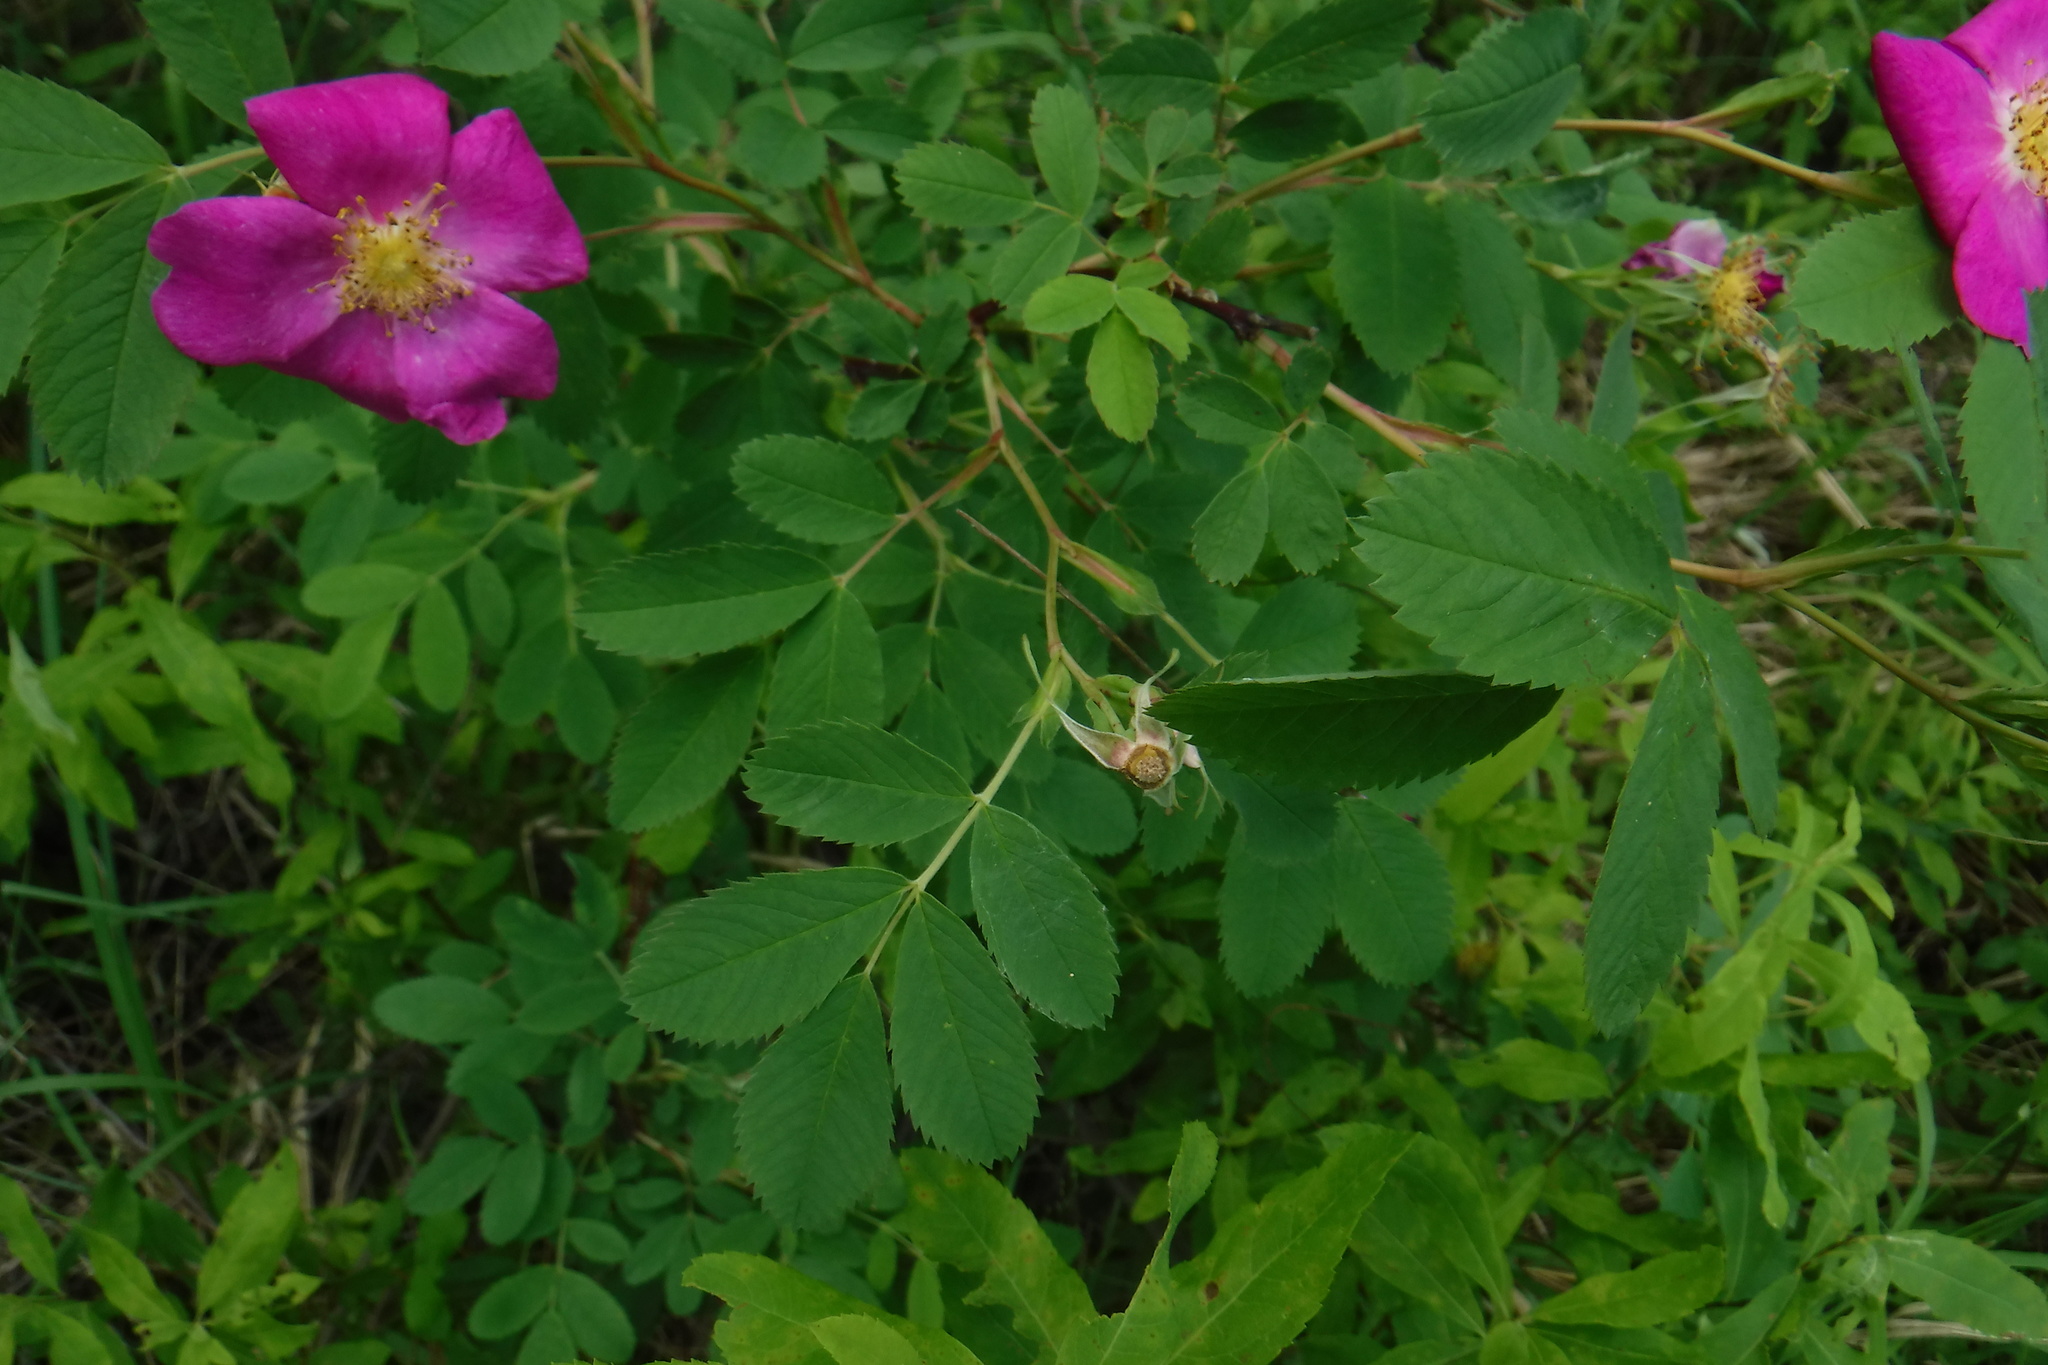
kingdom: Plantae
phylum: Tracheophyta
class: Magnoliopsida
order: Rosales
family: Rosaceae
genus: Rosa
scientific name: Rosa blanda
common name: Smooth rose
